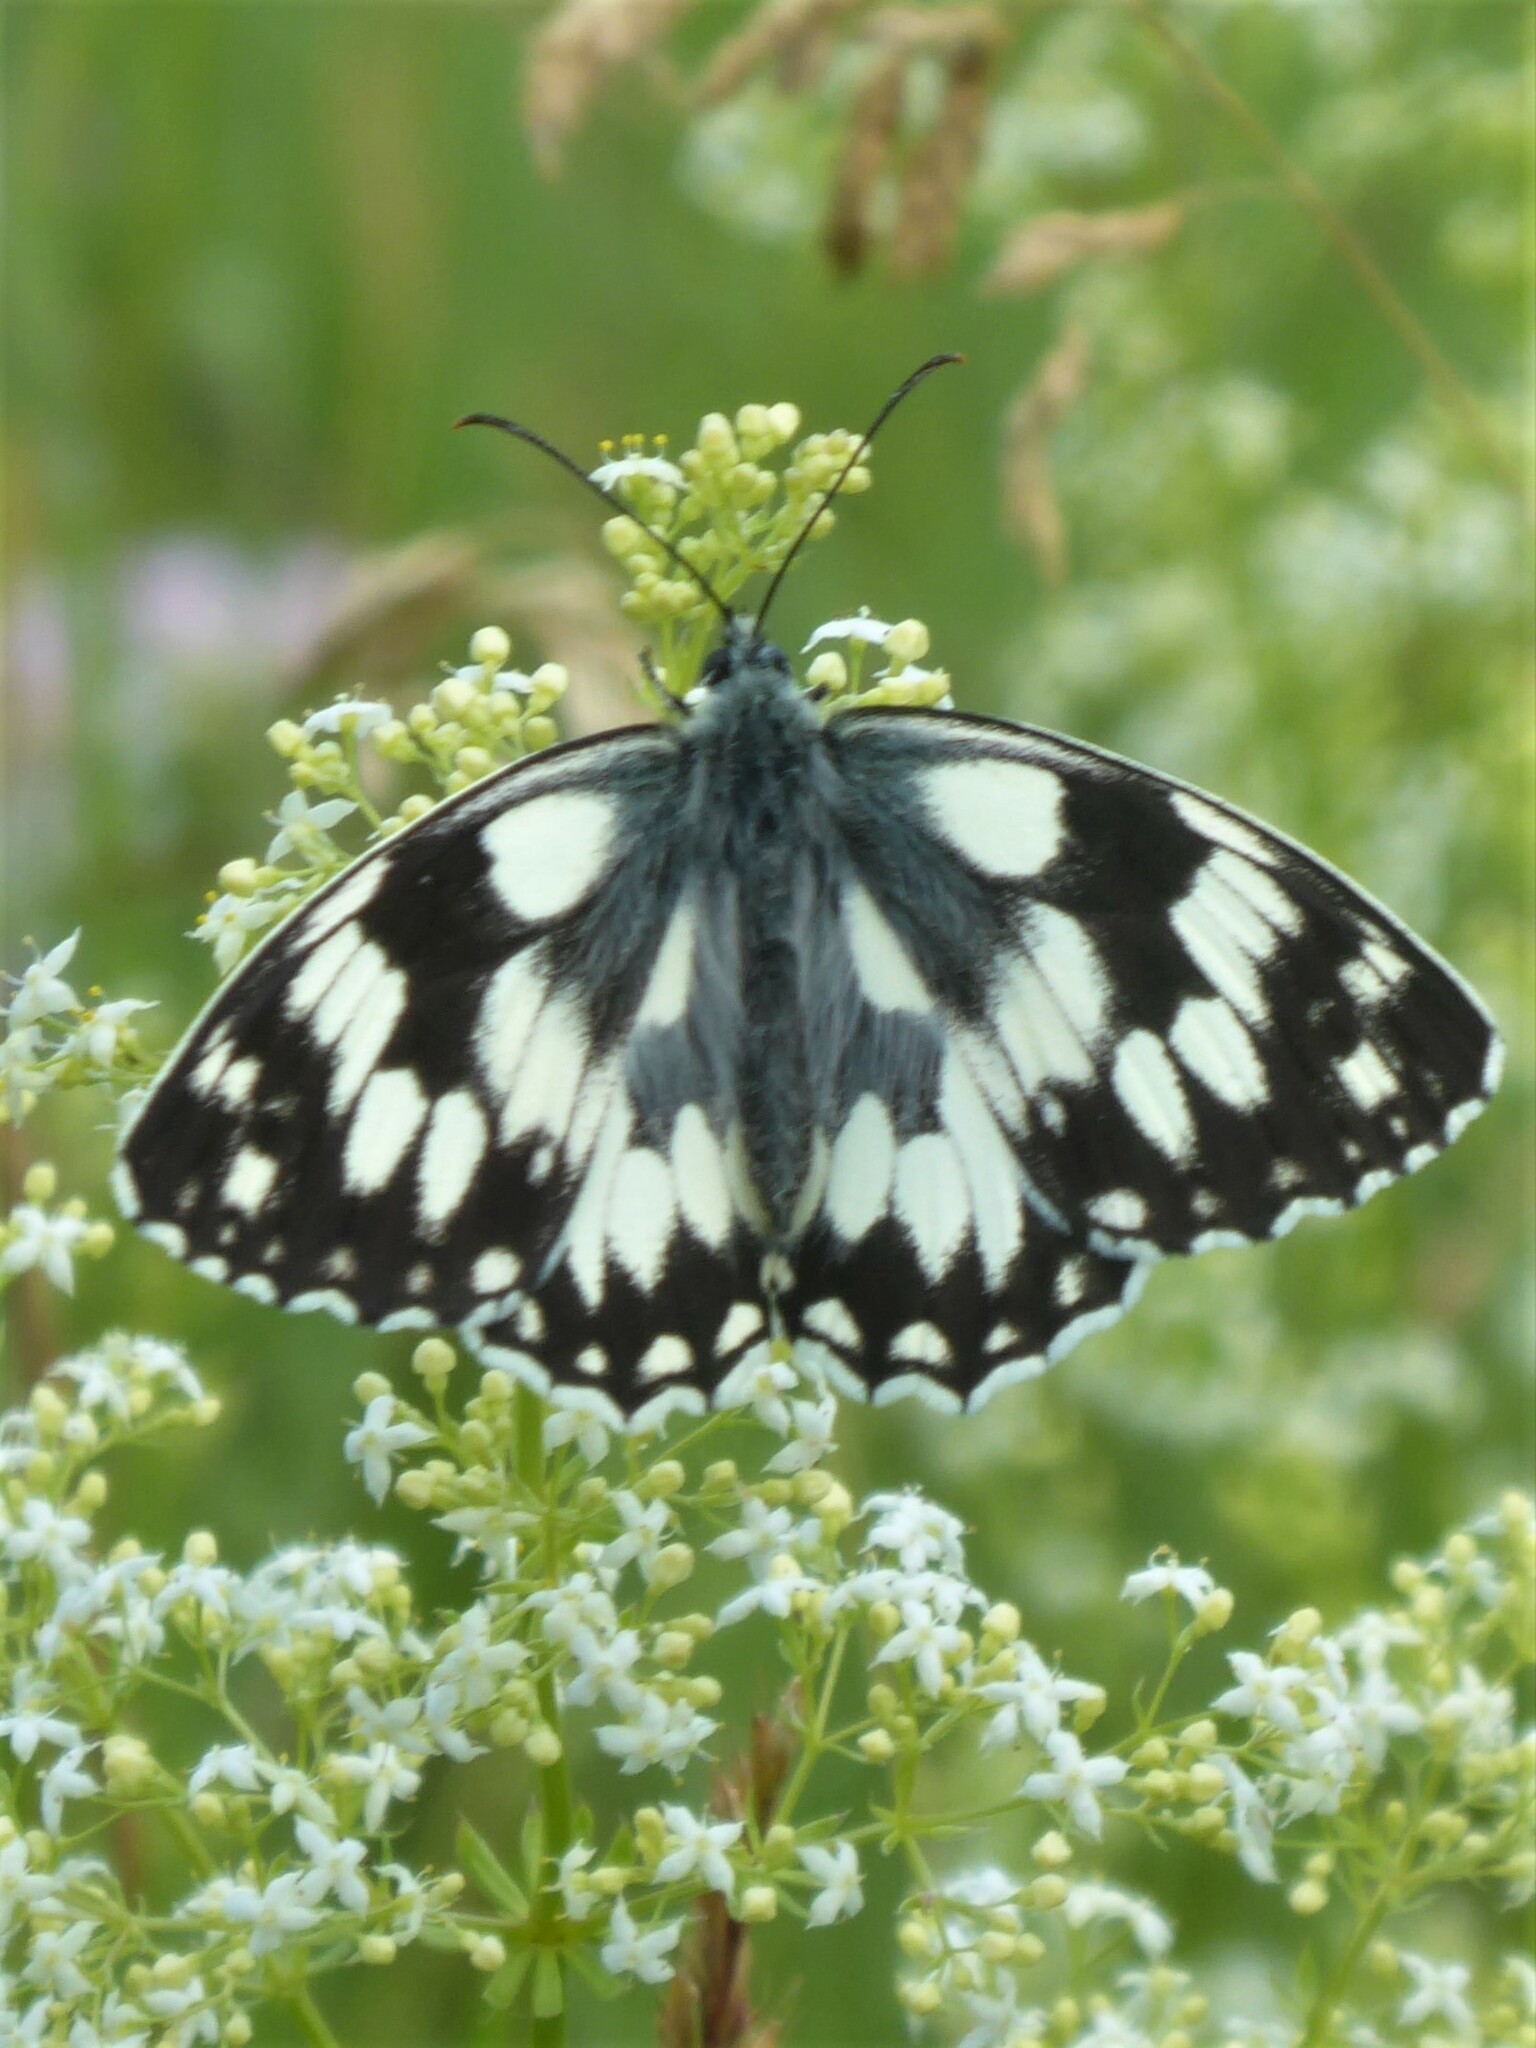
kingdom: Animalia
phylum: Arthropoda
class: Insecta
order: Lepidoptera
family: Nymphalidae
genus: Melanargia
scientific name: Melanargia galathea
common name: Marbled white
